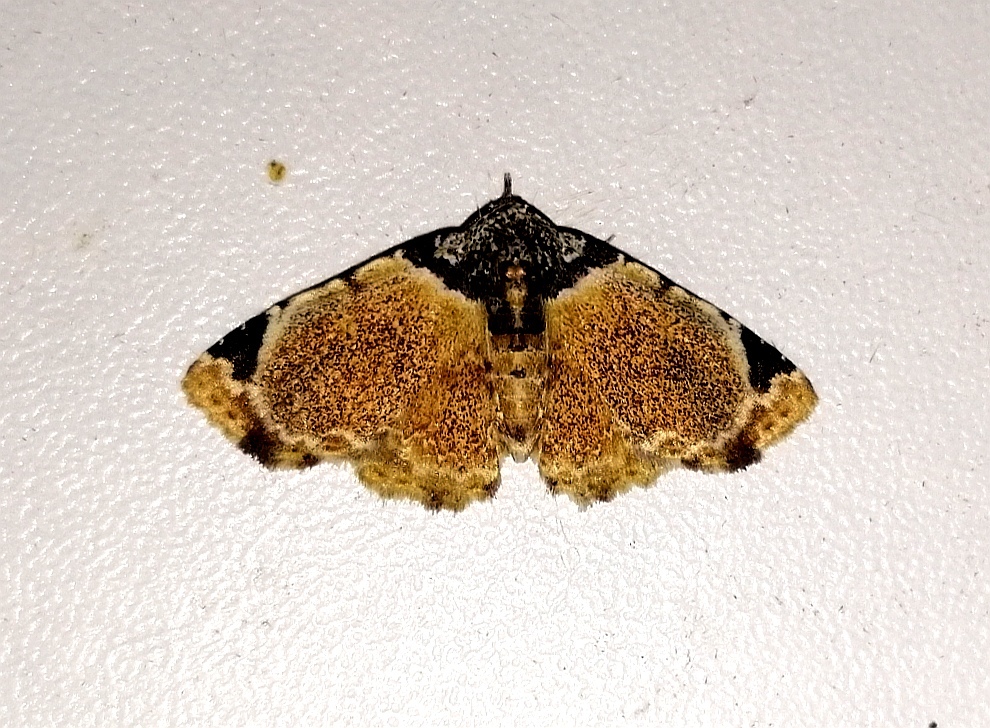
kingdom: Animalia
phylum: Arthropoda
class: Insecta
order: Lepidoptera
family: Erebidae
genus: Micranthops
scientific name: Micranthops alceste
